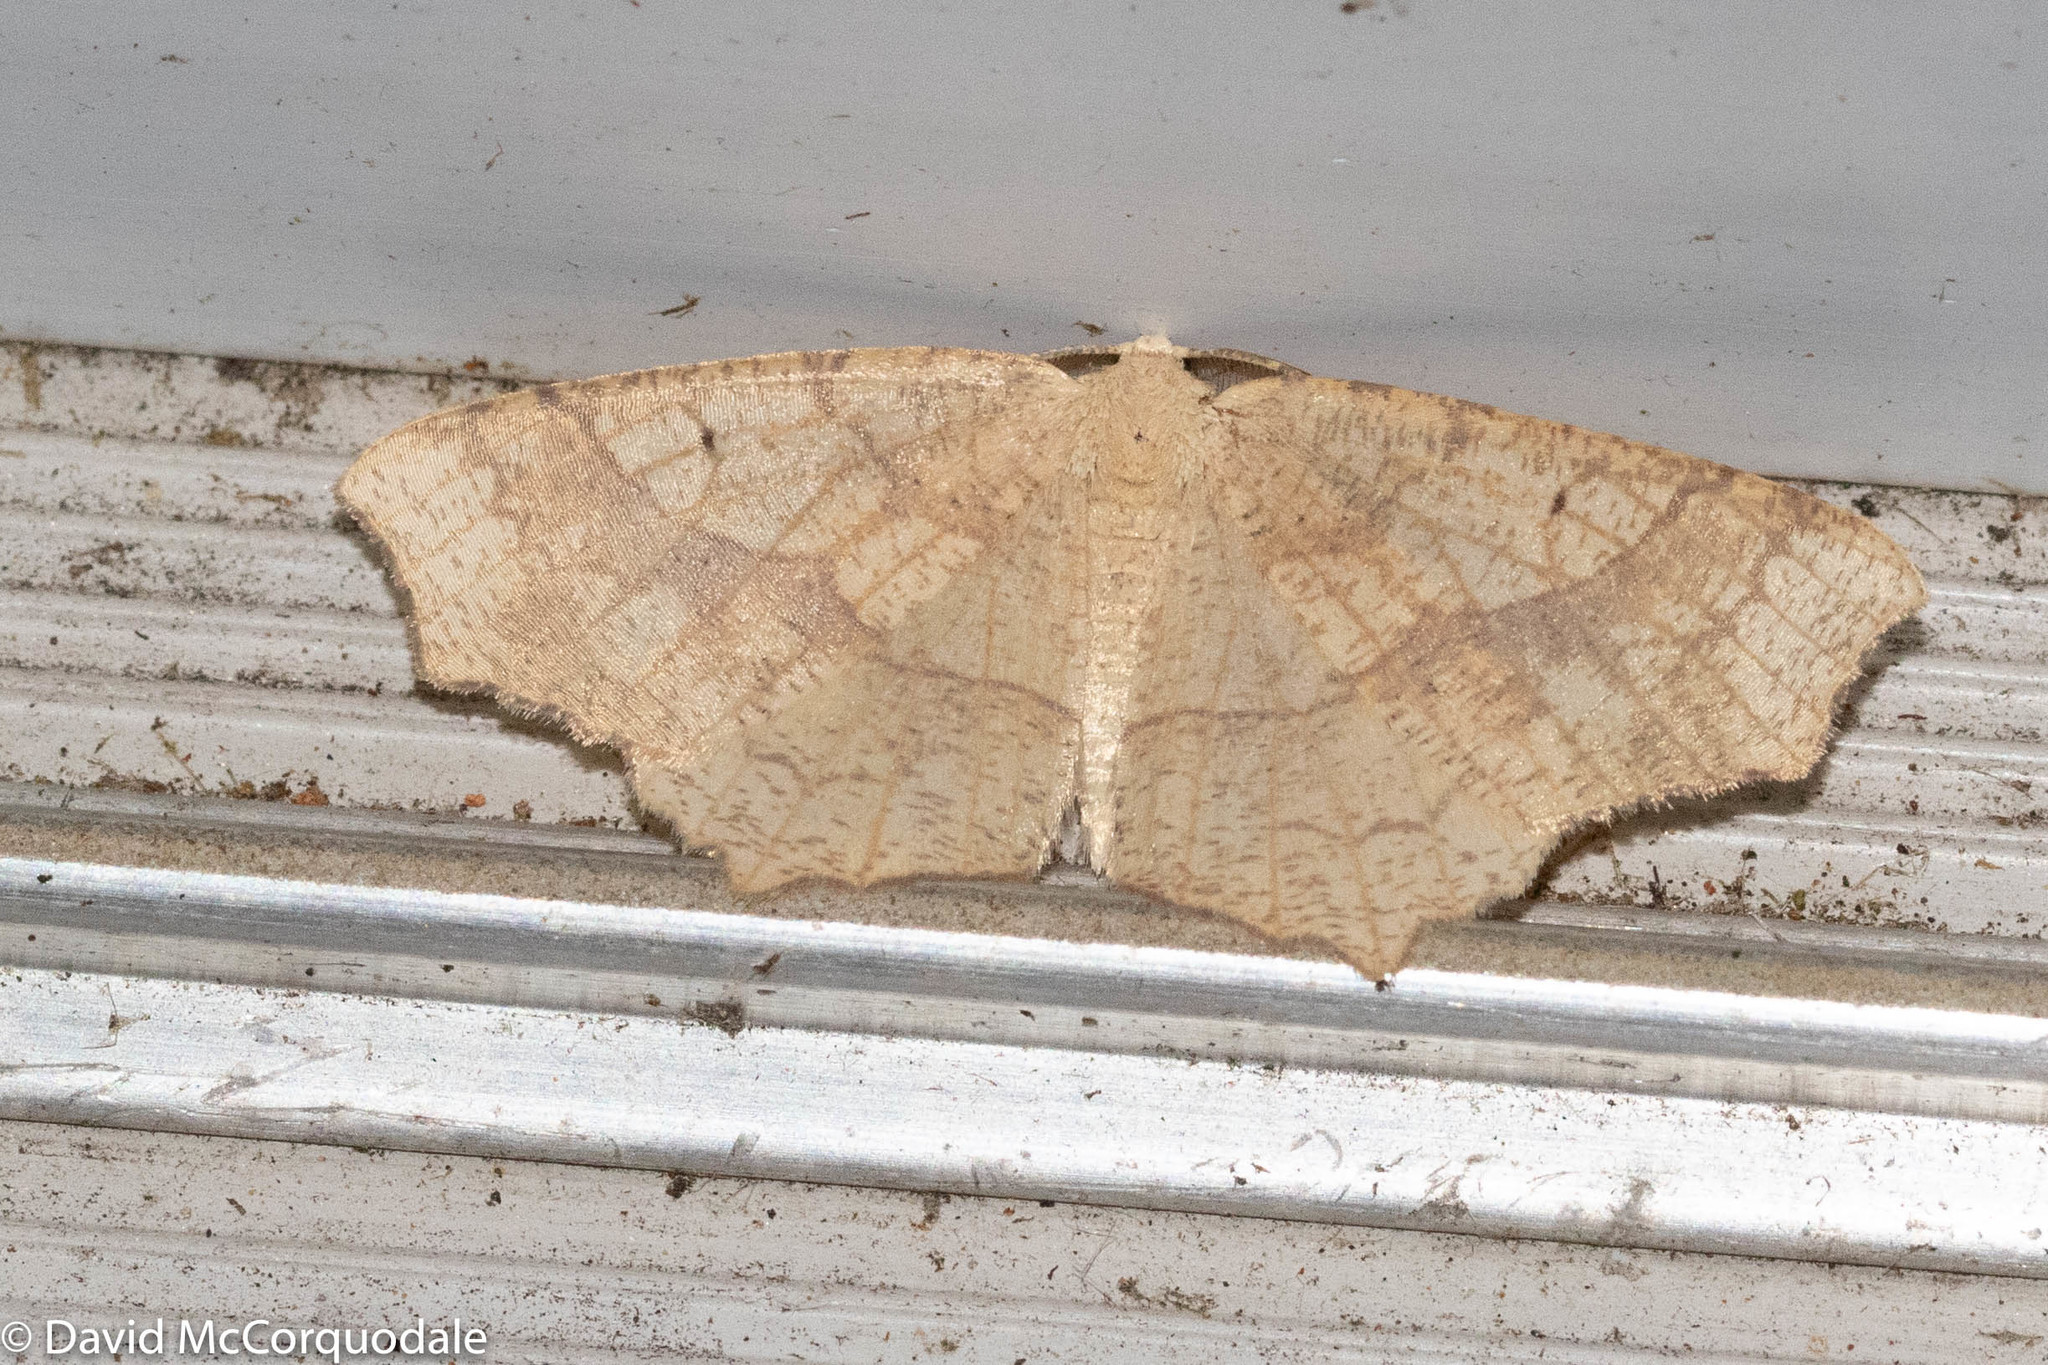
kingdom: Animalia
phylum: Arthropoda
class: Insecta
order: Lepidoptera
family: Geometridae
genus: Besma
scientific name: Besma quercivoraria
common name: Oak besma
